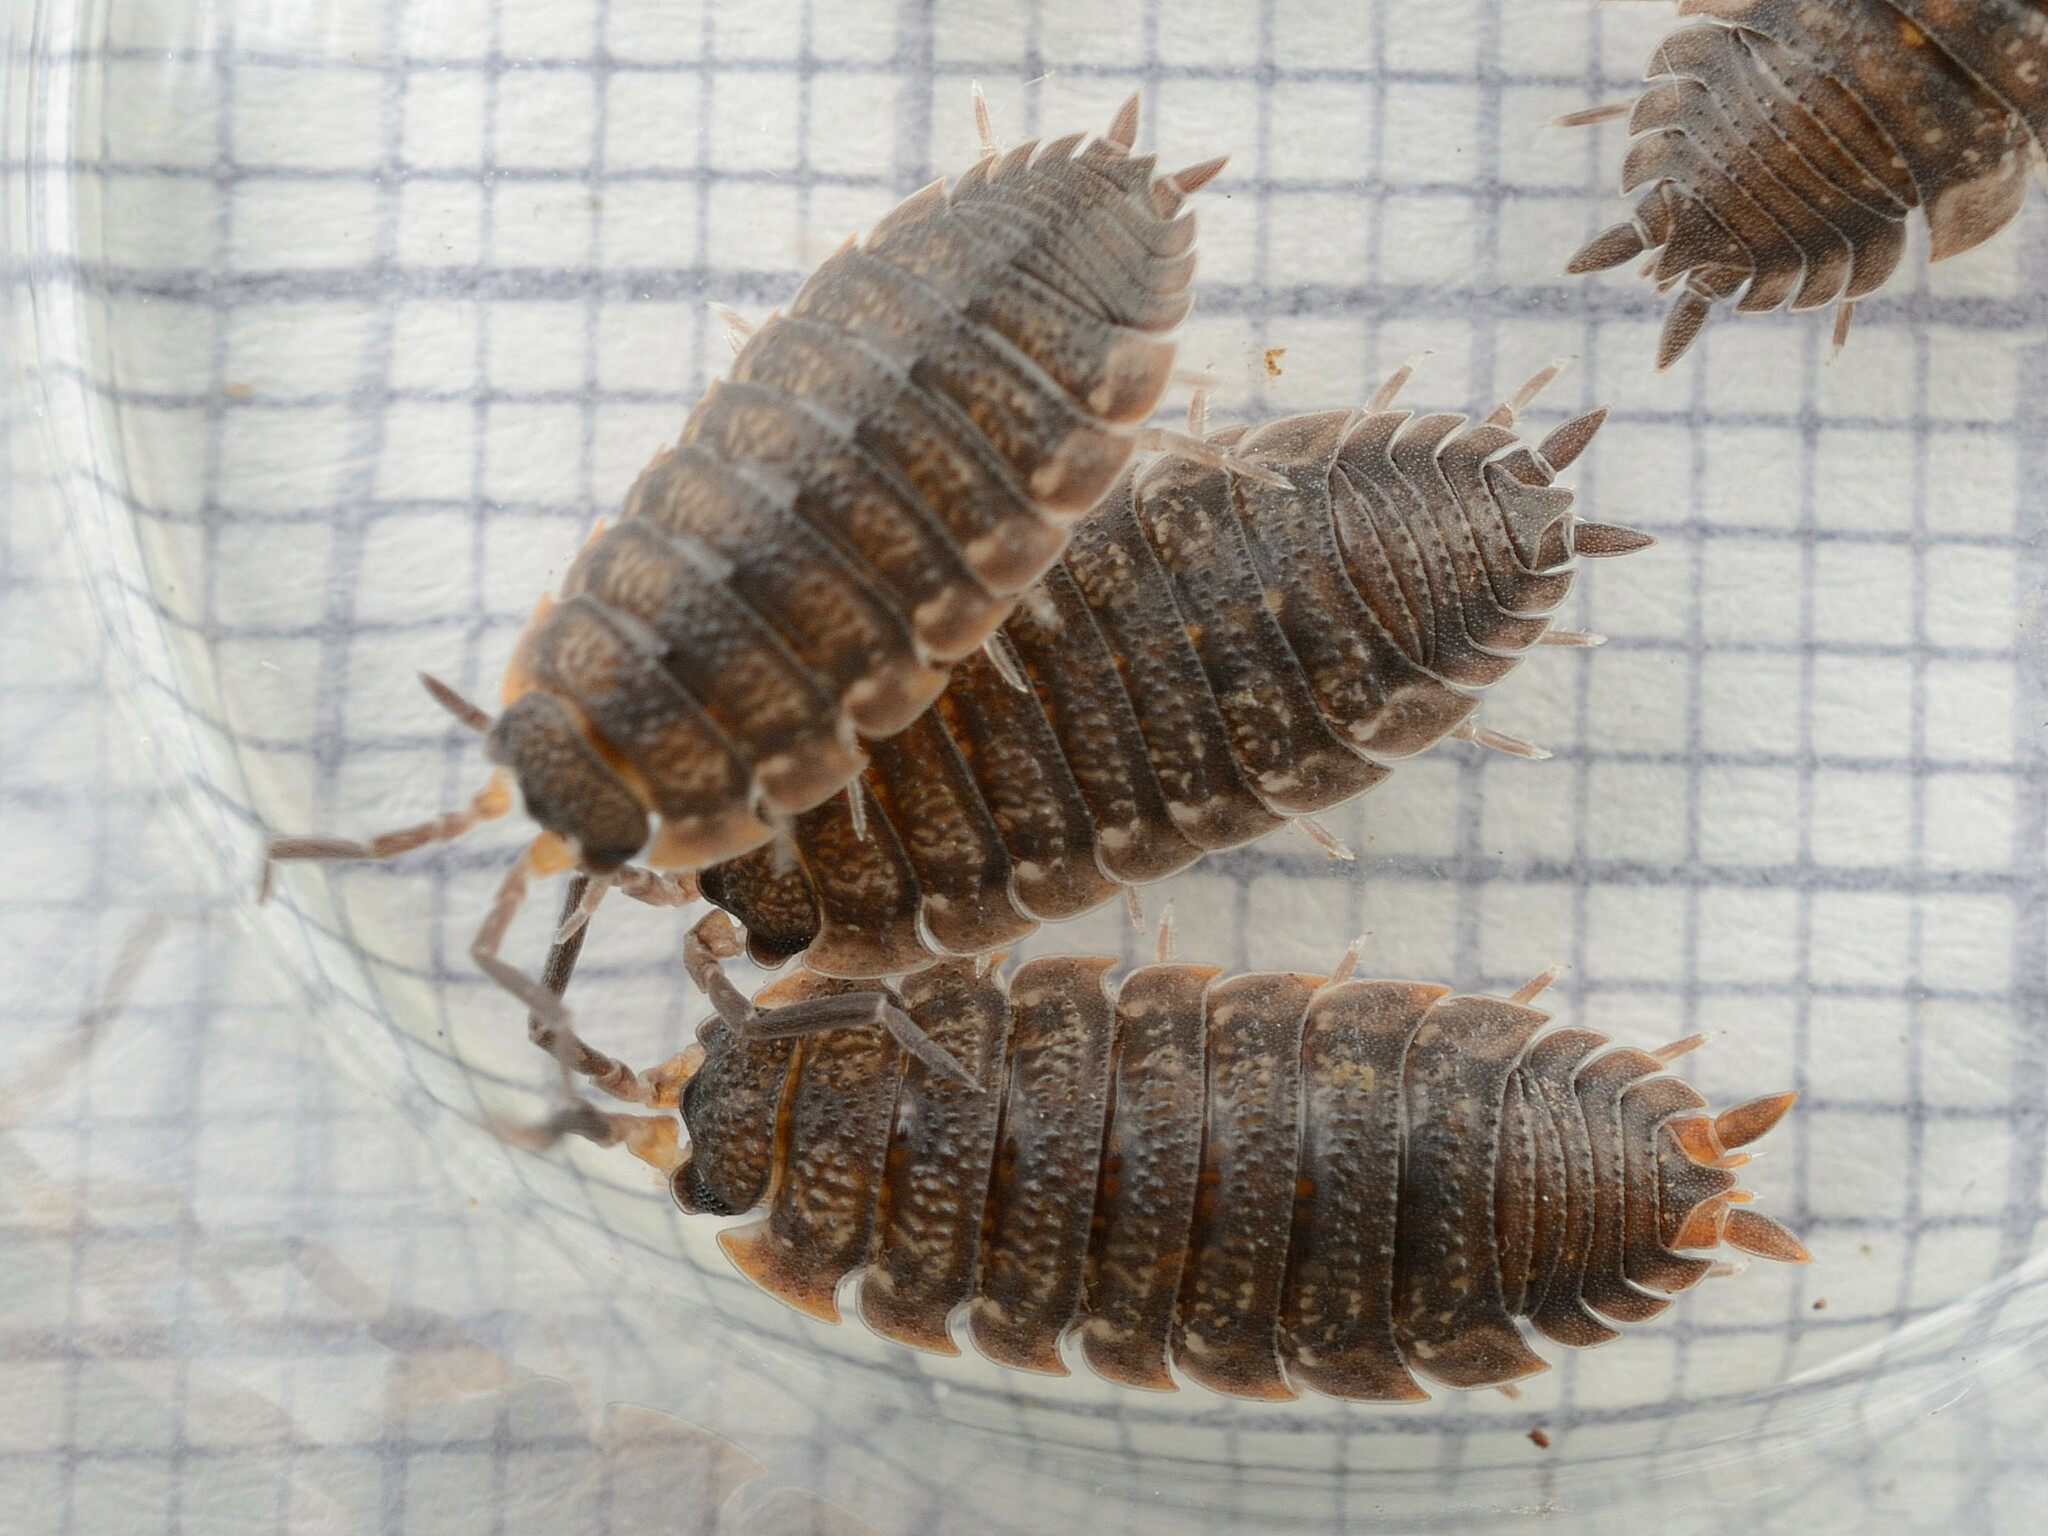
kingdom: Animalia
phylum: Arthropoda
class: Malacostraca
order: Isopoda
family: Porcellionidae
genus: Porcellio
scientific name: Porcellio scaber
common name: Common rough woodlouse
